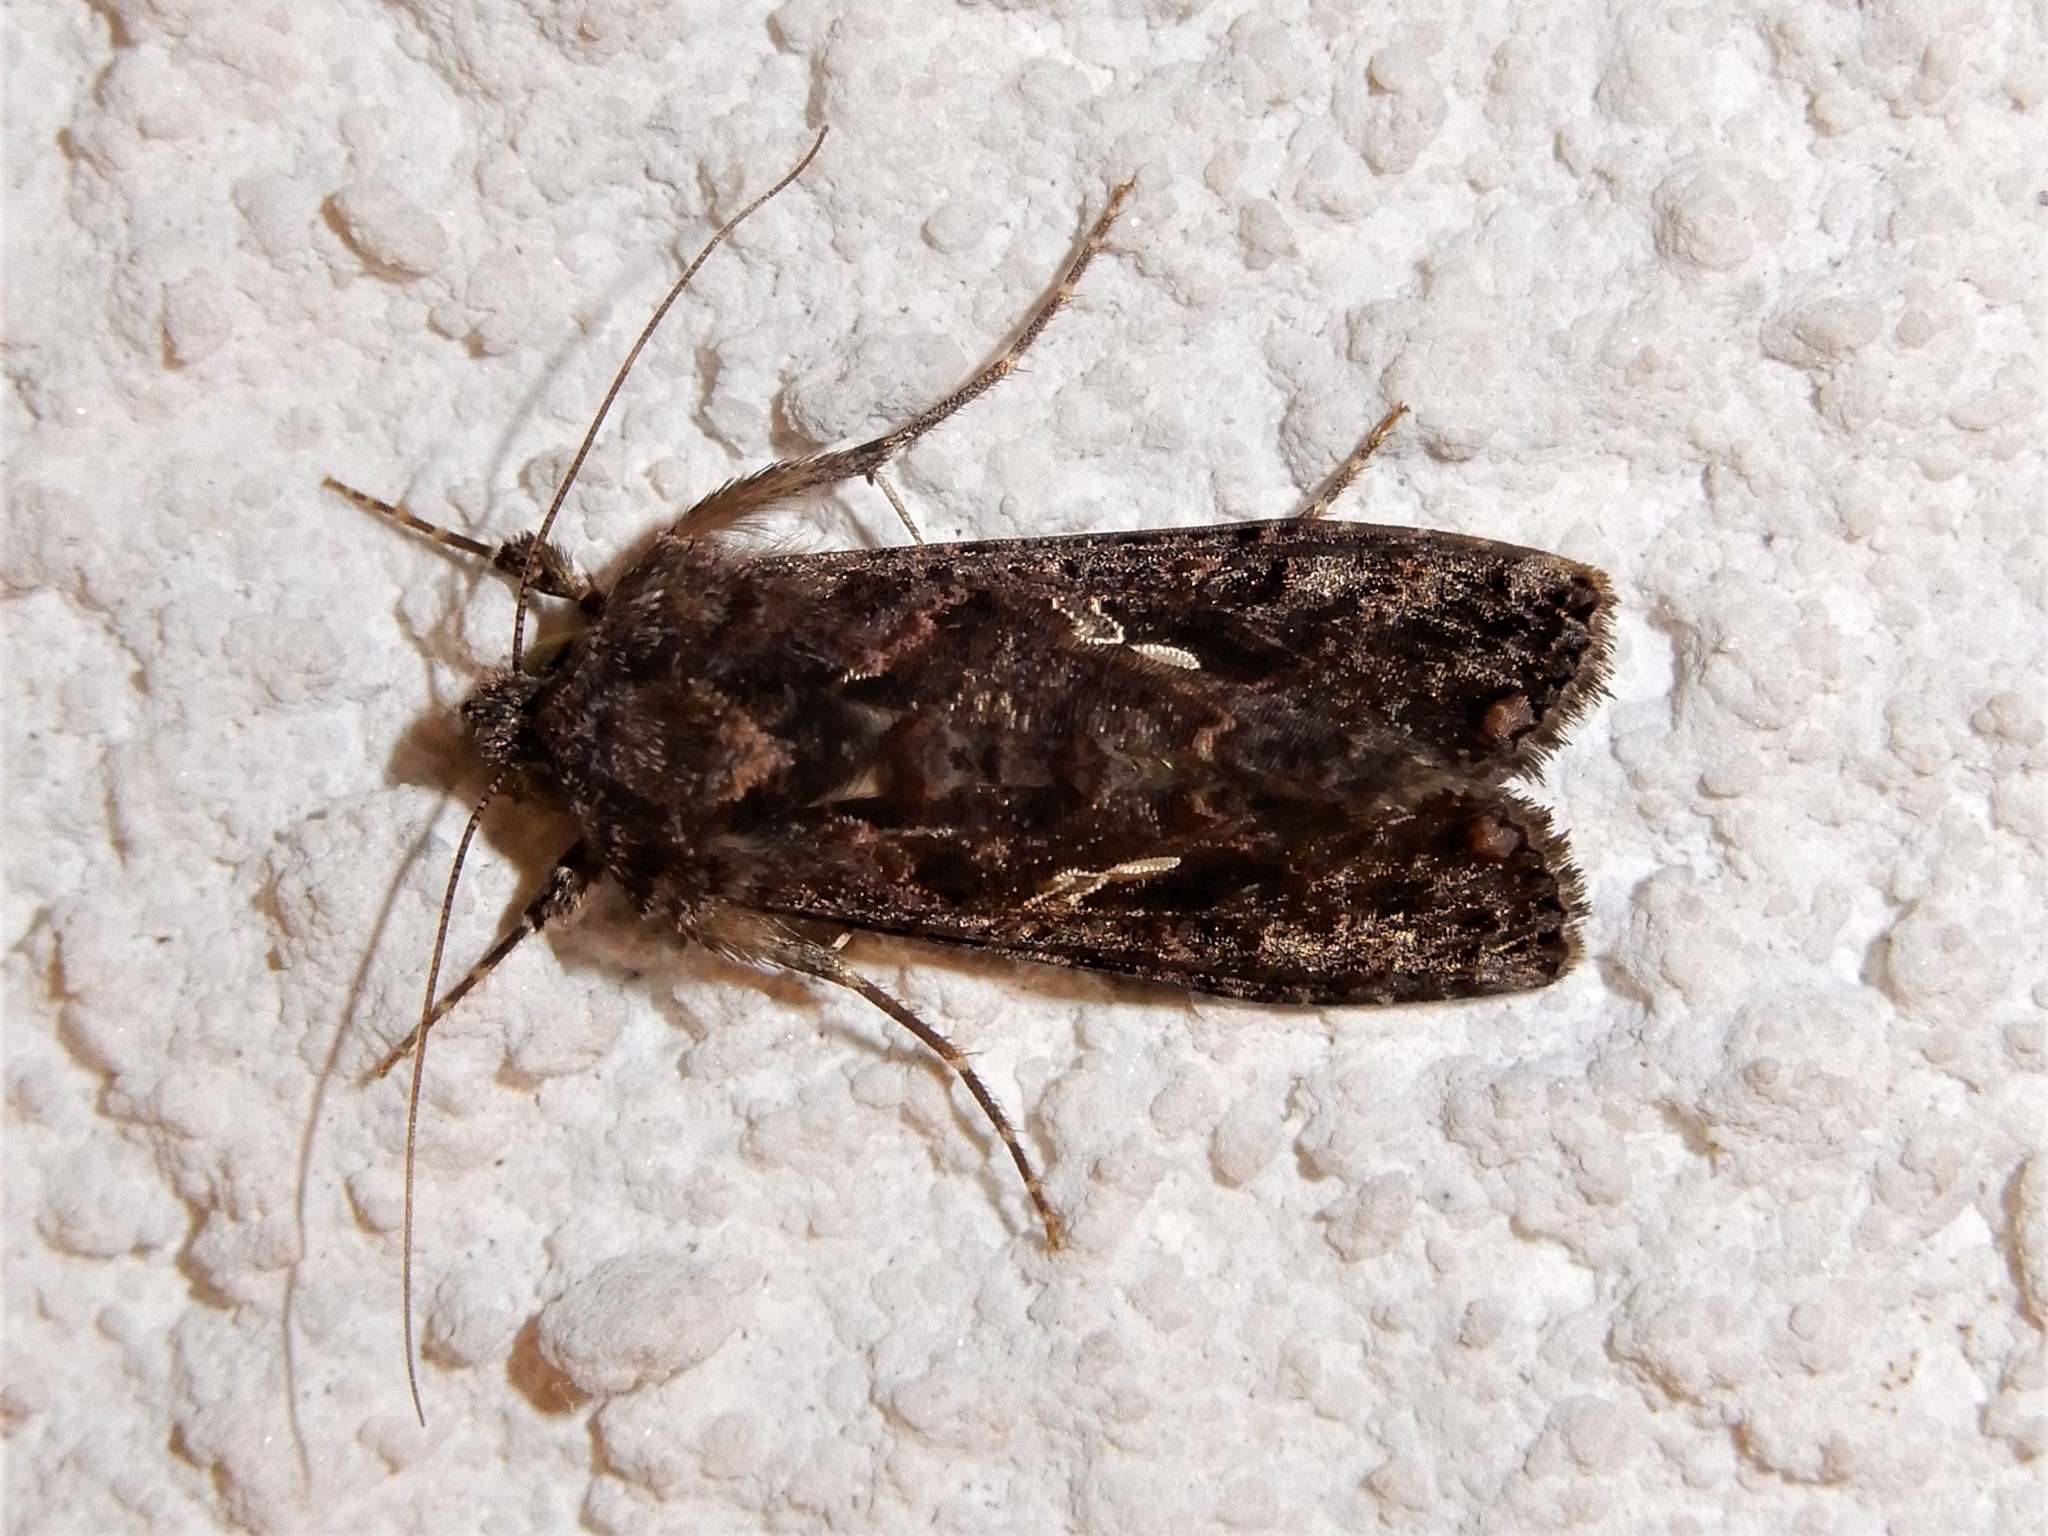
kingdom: Animalia
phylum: Arthropoda
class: Insecta
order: Lepidoptera
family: Noctuidae
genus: Ctenoplusia
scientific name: Ctenoplusia limbirena
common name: Scar bank gem
